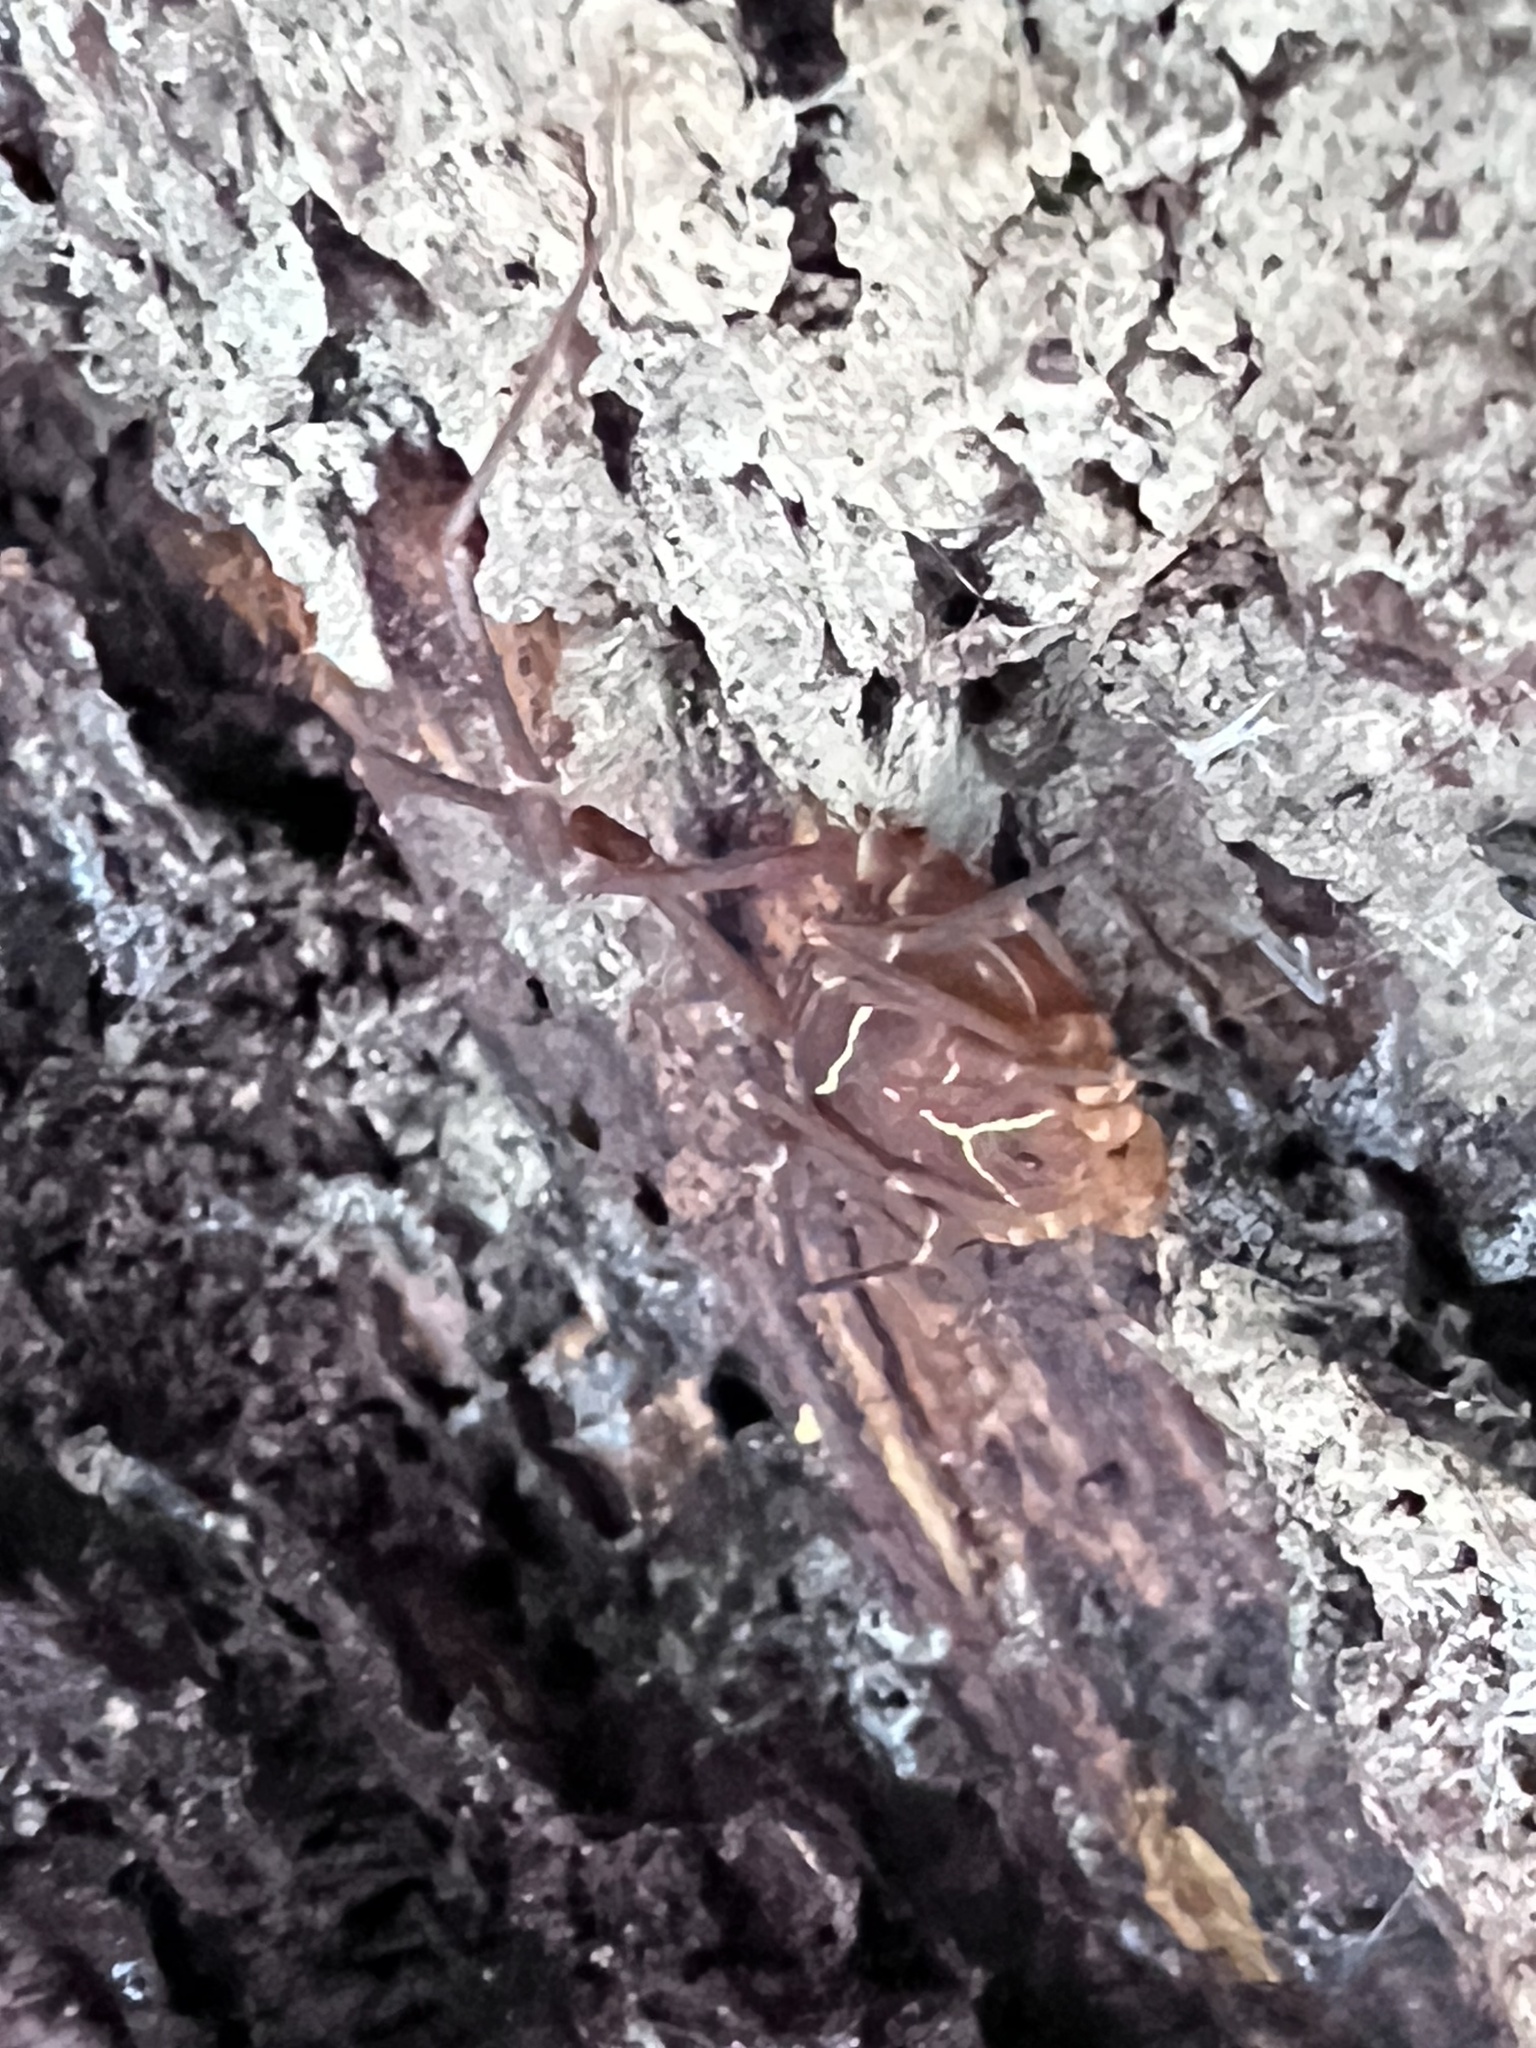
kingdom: Animalia
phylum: Arthropoda
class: Arachnida
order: Opiliones
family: Cosmetidae
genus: Libitioides
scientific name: Libitioides sayi
